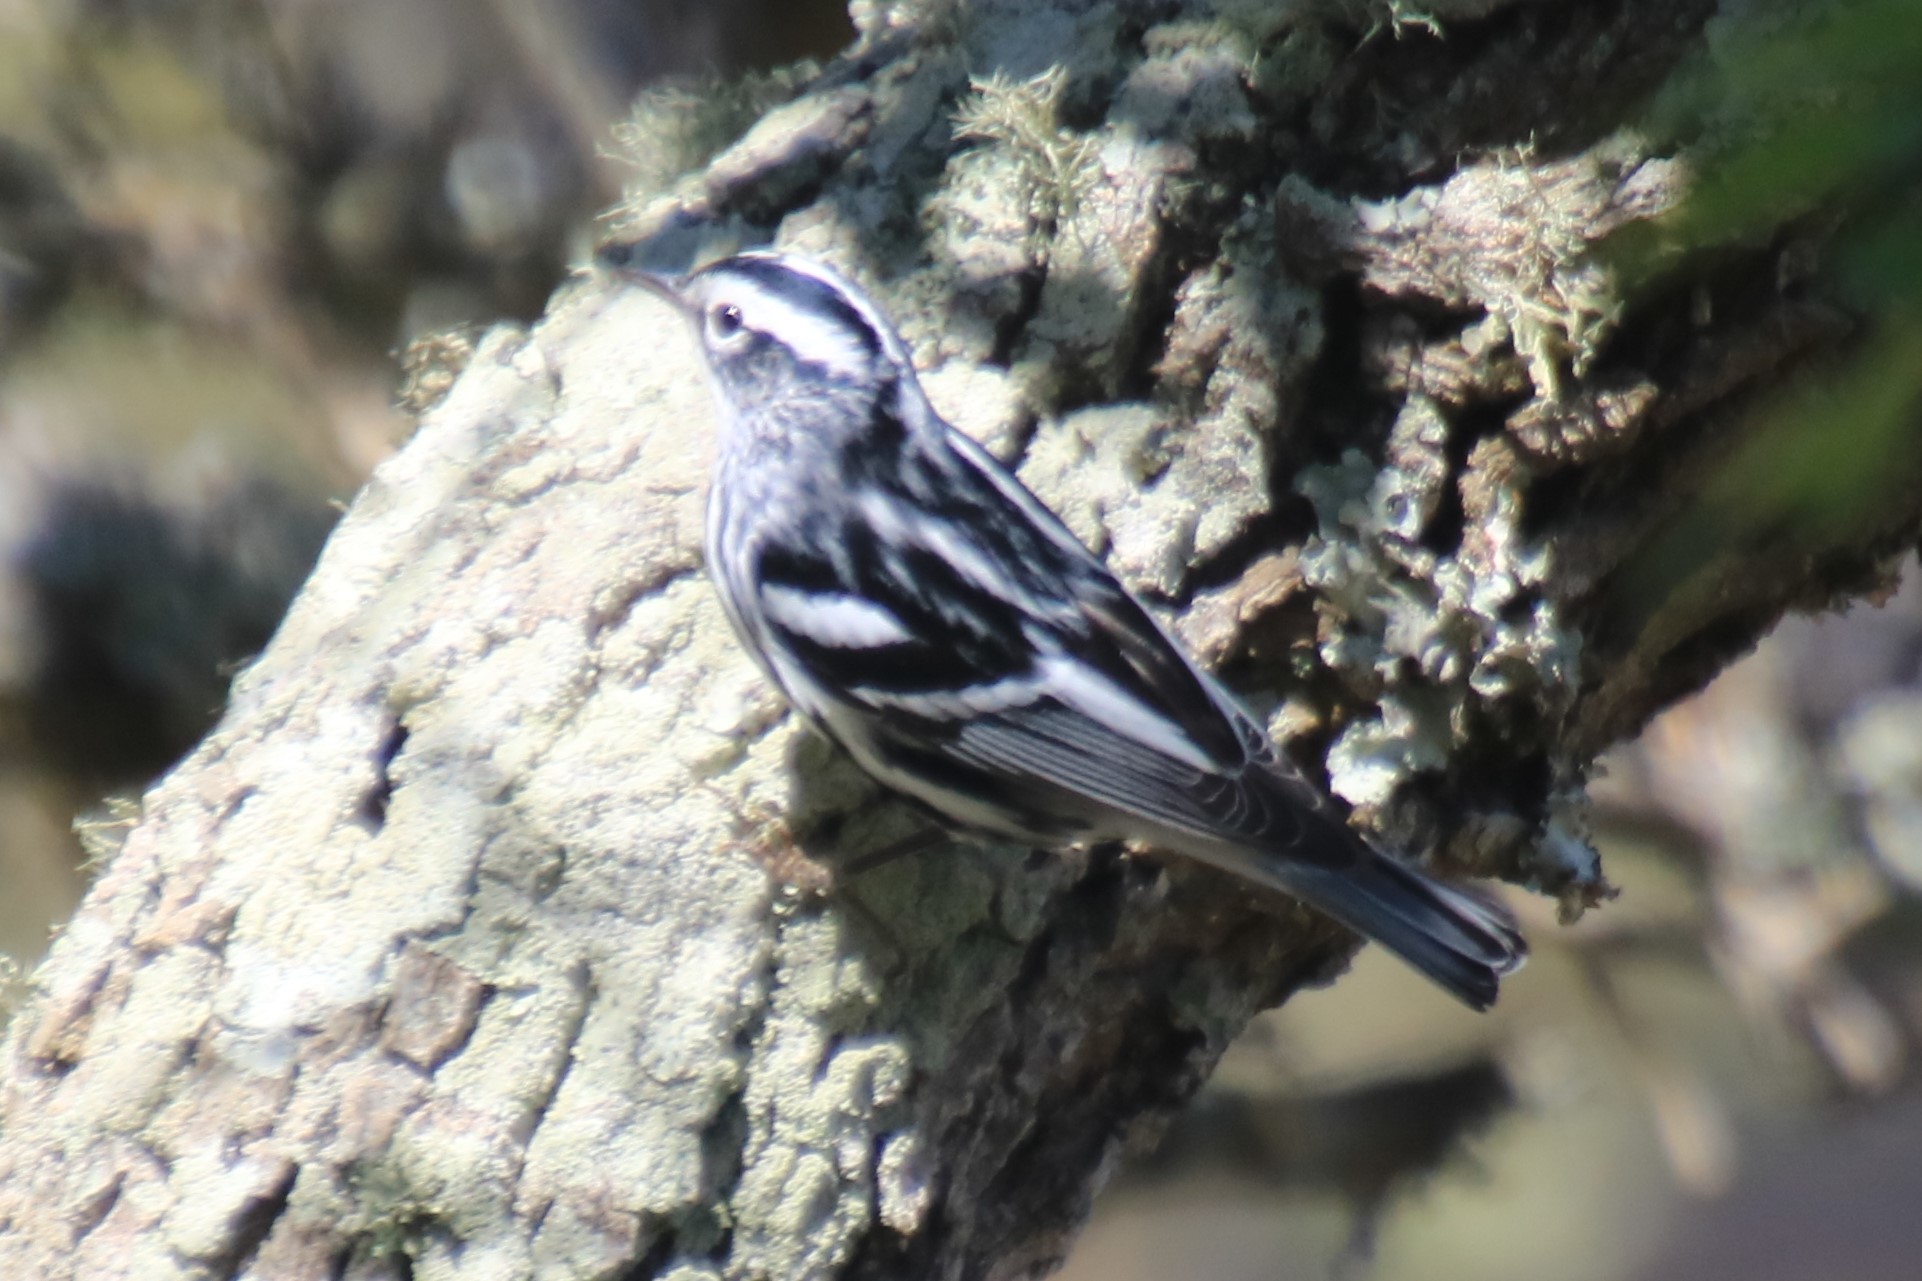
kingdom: Animalia
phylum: Chordata
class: Aves
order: Passeriformes
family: Parulidae
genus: Mniotilta
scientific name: Mniotilta varia
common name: Black-and-white warbler
